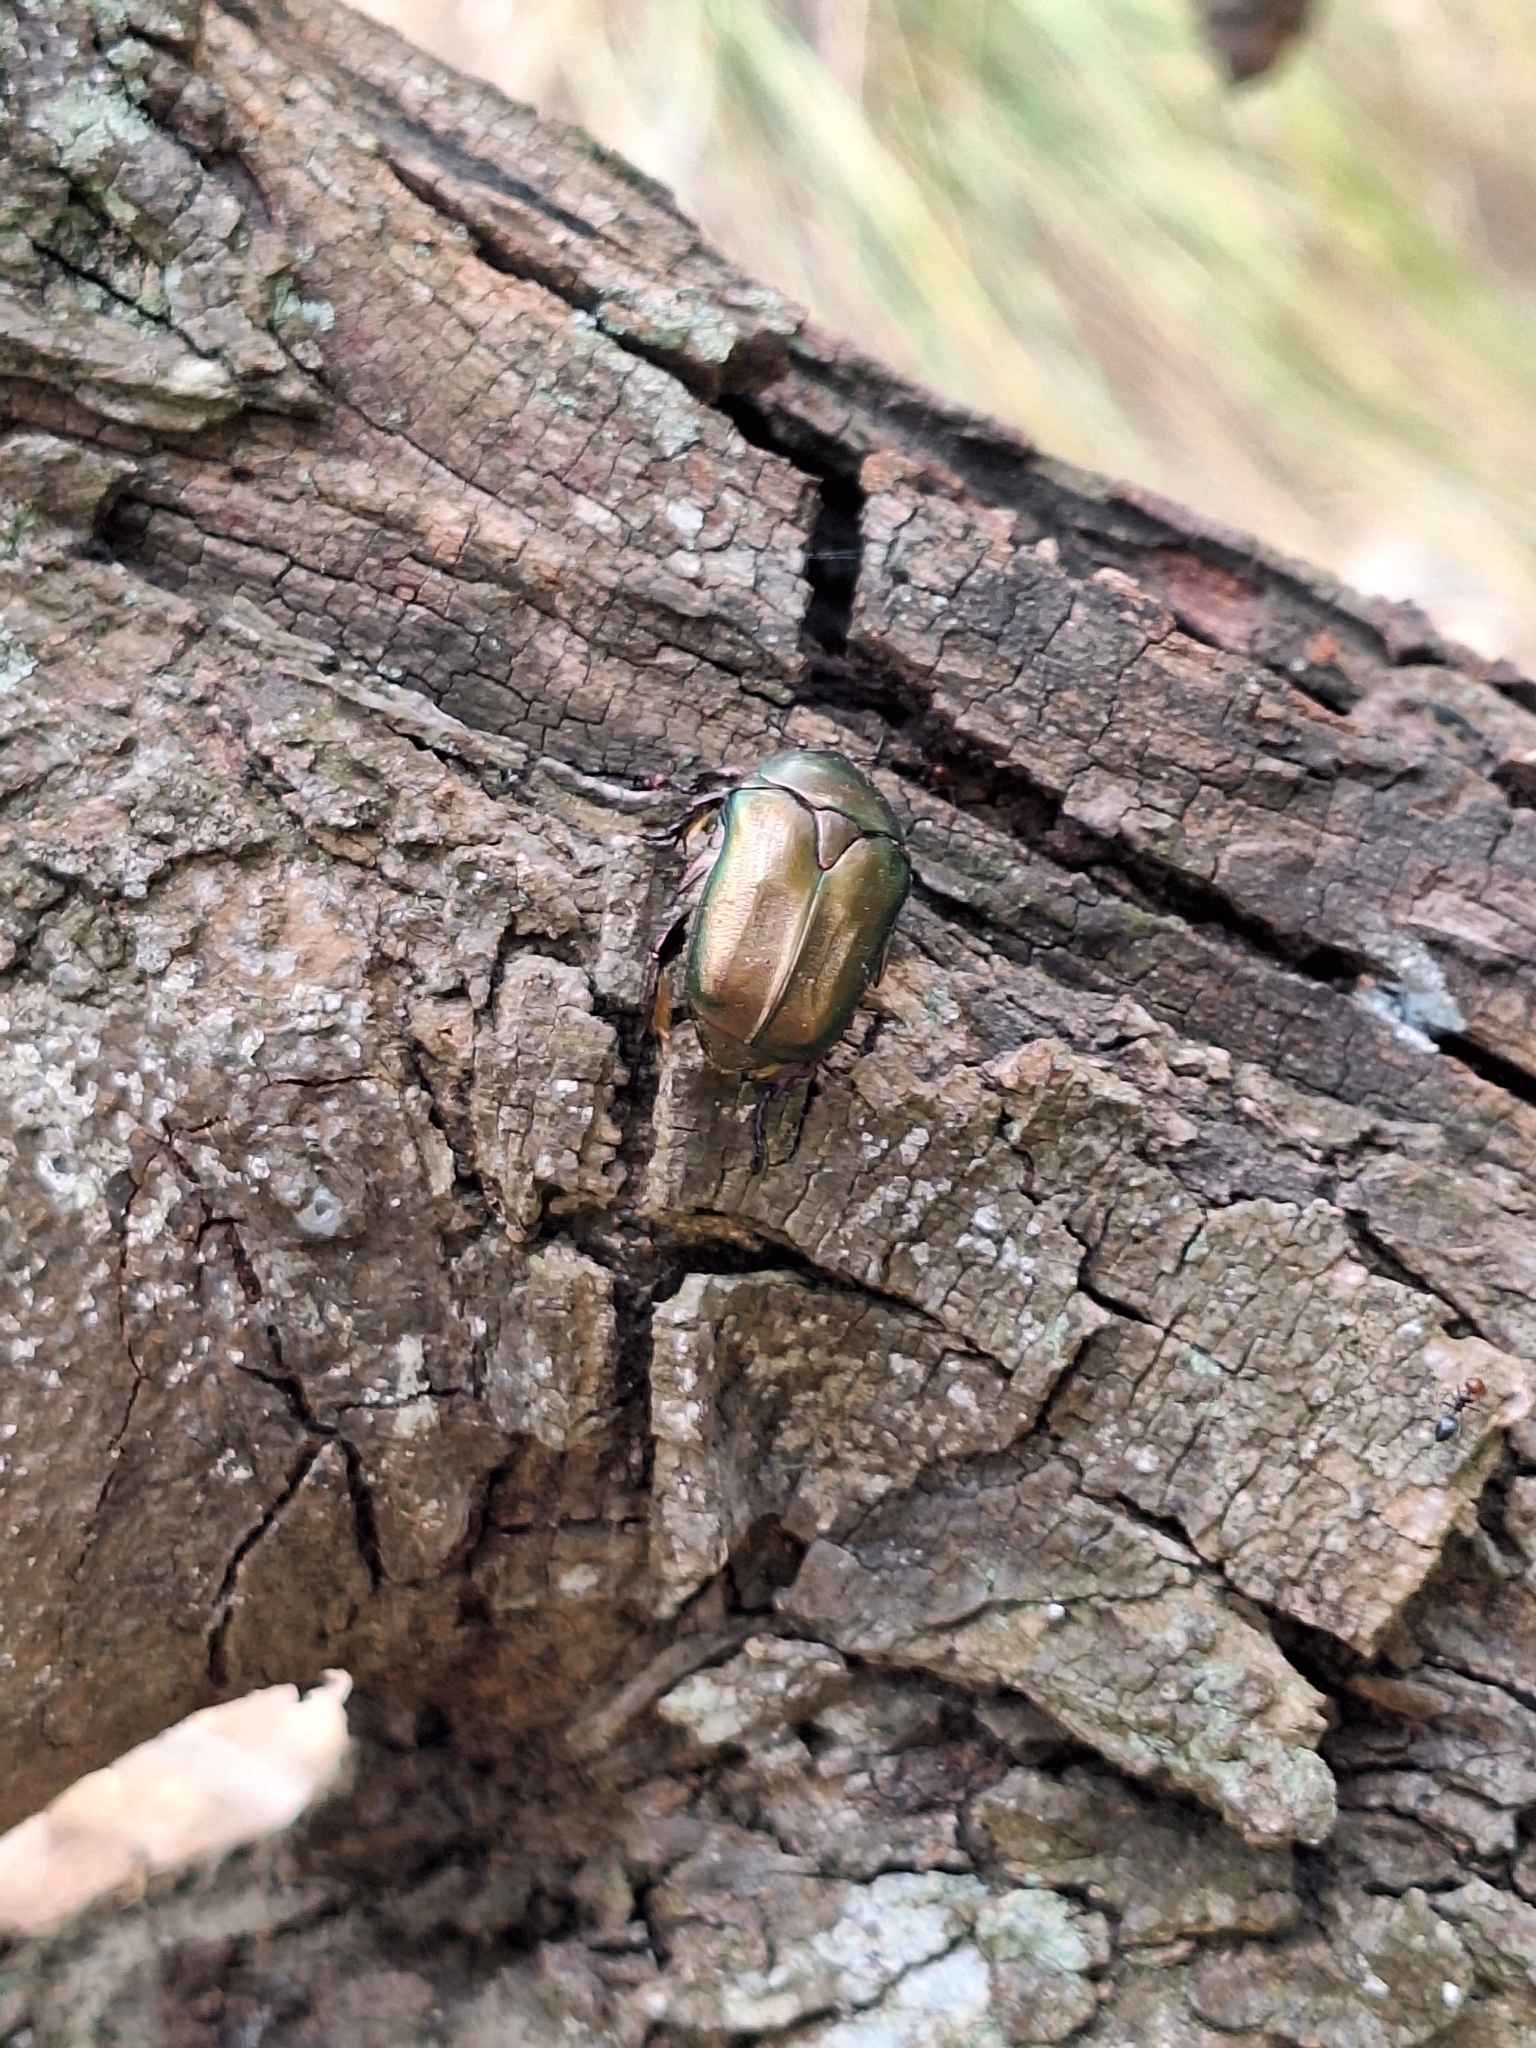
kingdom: Animalia
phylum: Arthropoda
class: Insecta
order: Coleoptera
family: Scarabaeidae
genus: Protaetia
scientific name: Protaetia cuprea
